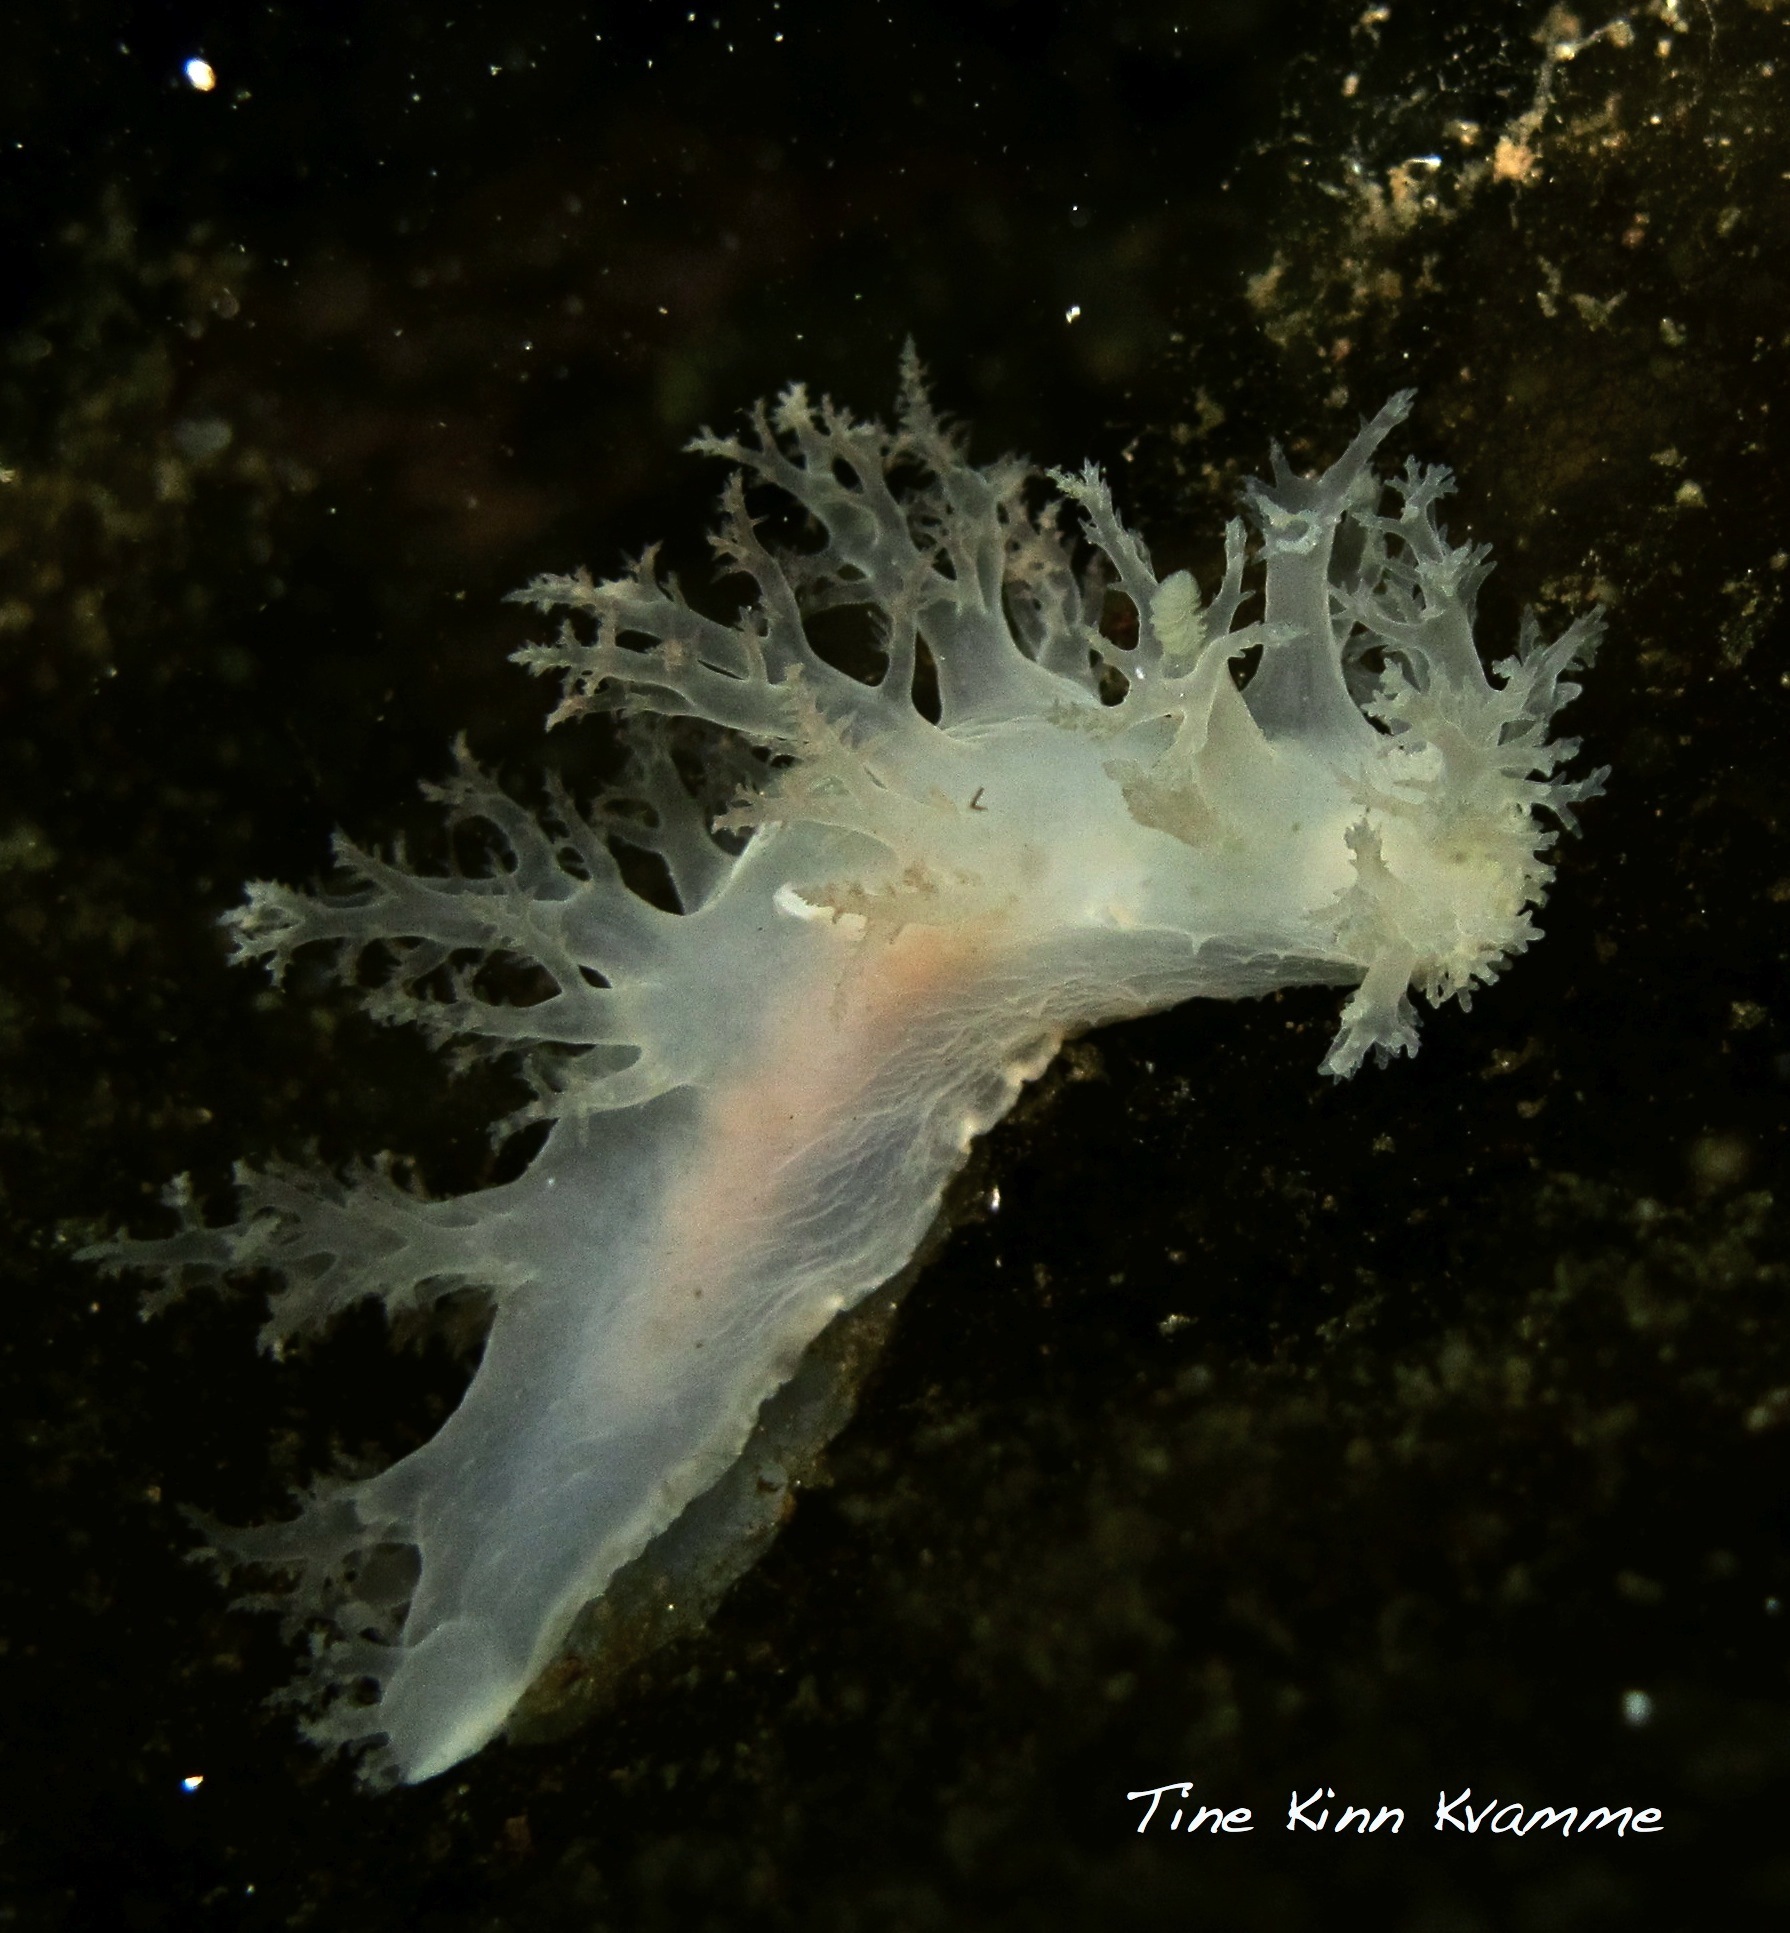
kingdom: Animalia
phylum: Mollusca
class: Gastropoda
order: Nudibranchia
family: Dendronotidae
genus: Dendronotus
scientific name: Dendronotus frondosus
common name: Bushy-backed nudibranch
